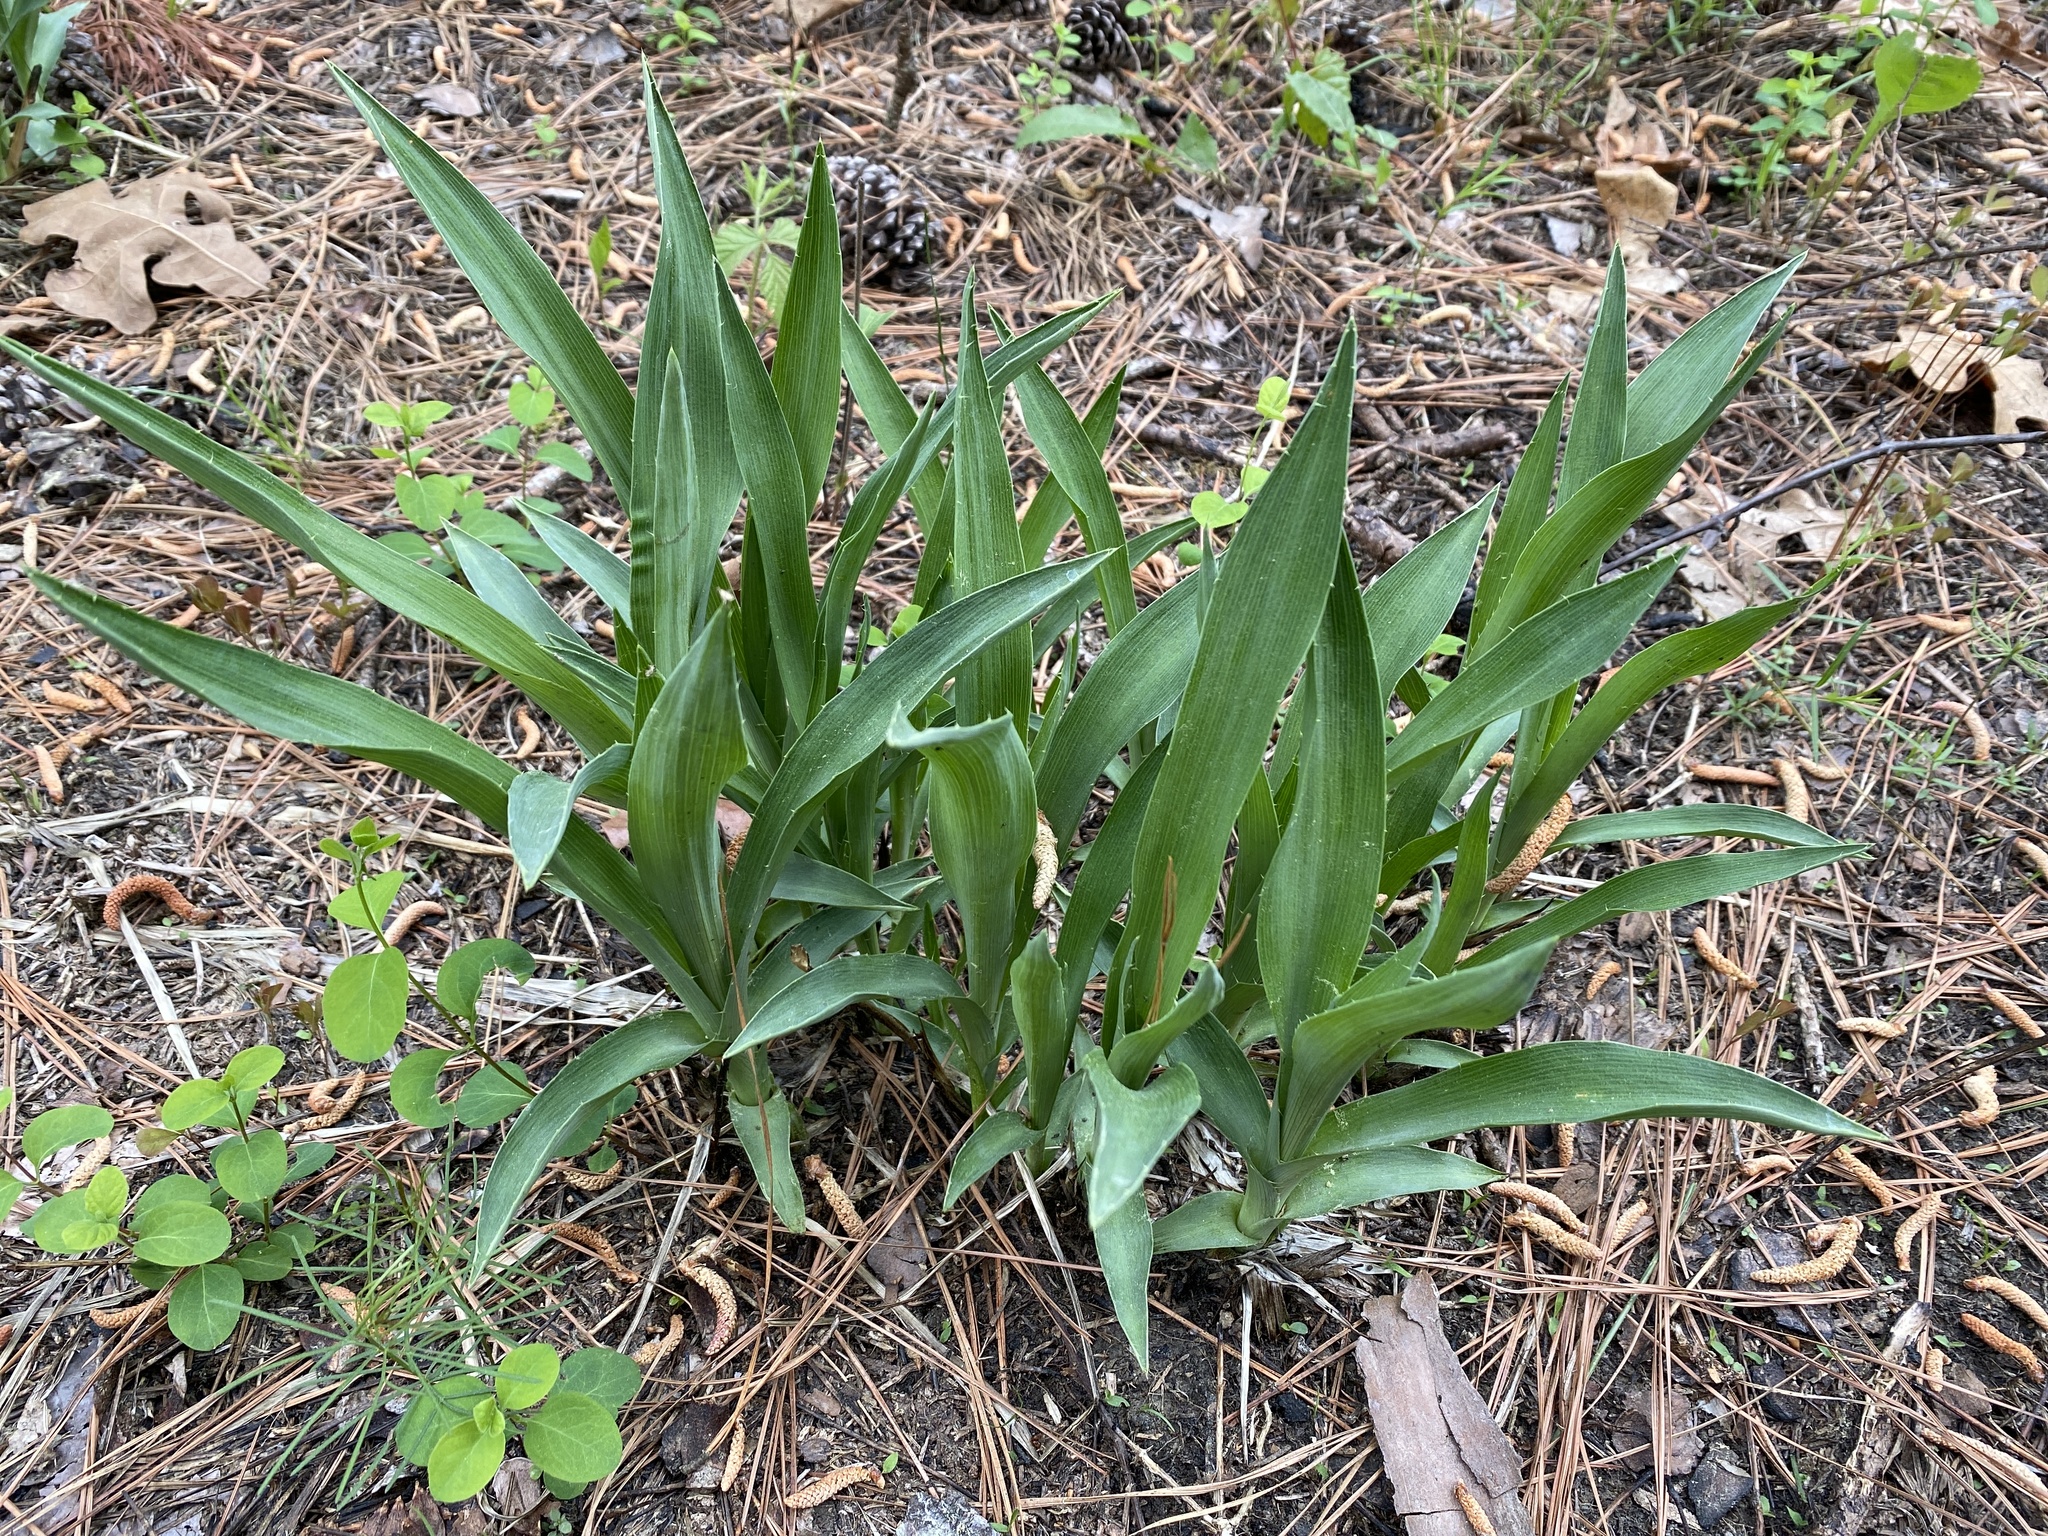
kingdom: Plantae
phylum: Tracheophyta
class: Magnoliopsida
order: Apiales
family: Apiaceae
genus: Eryngium
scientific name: Eryngium yuccifolium
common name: Button eryngo
